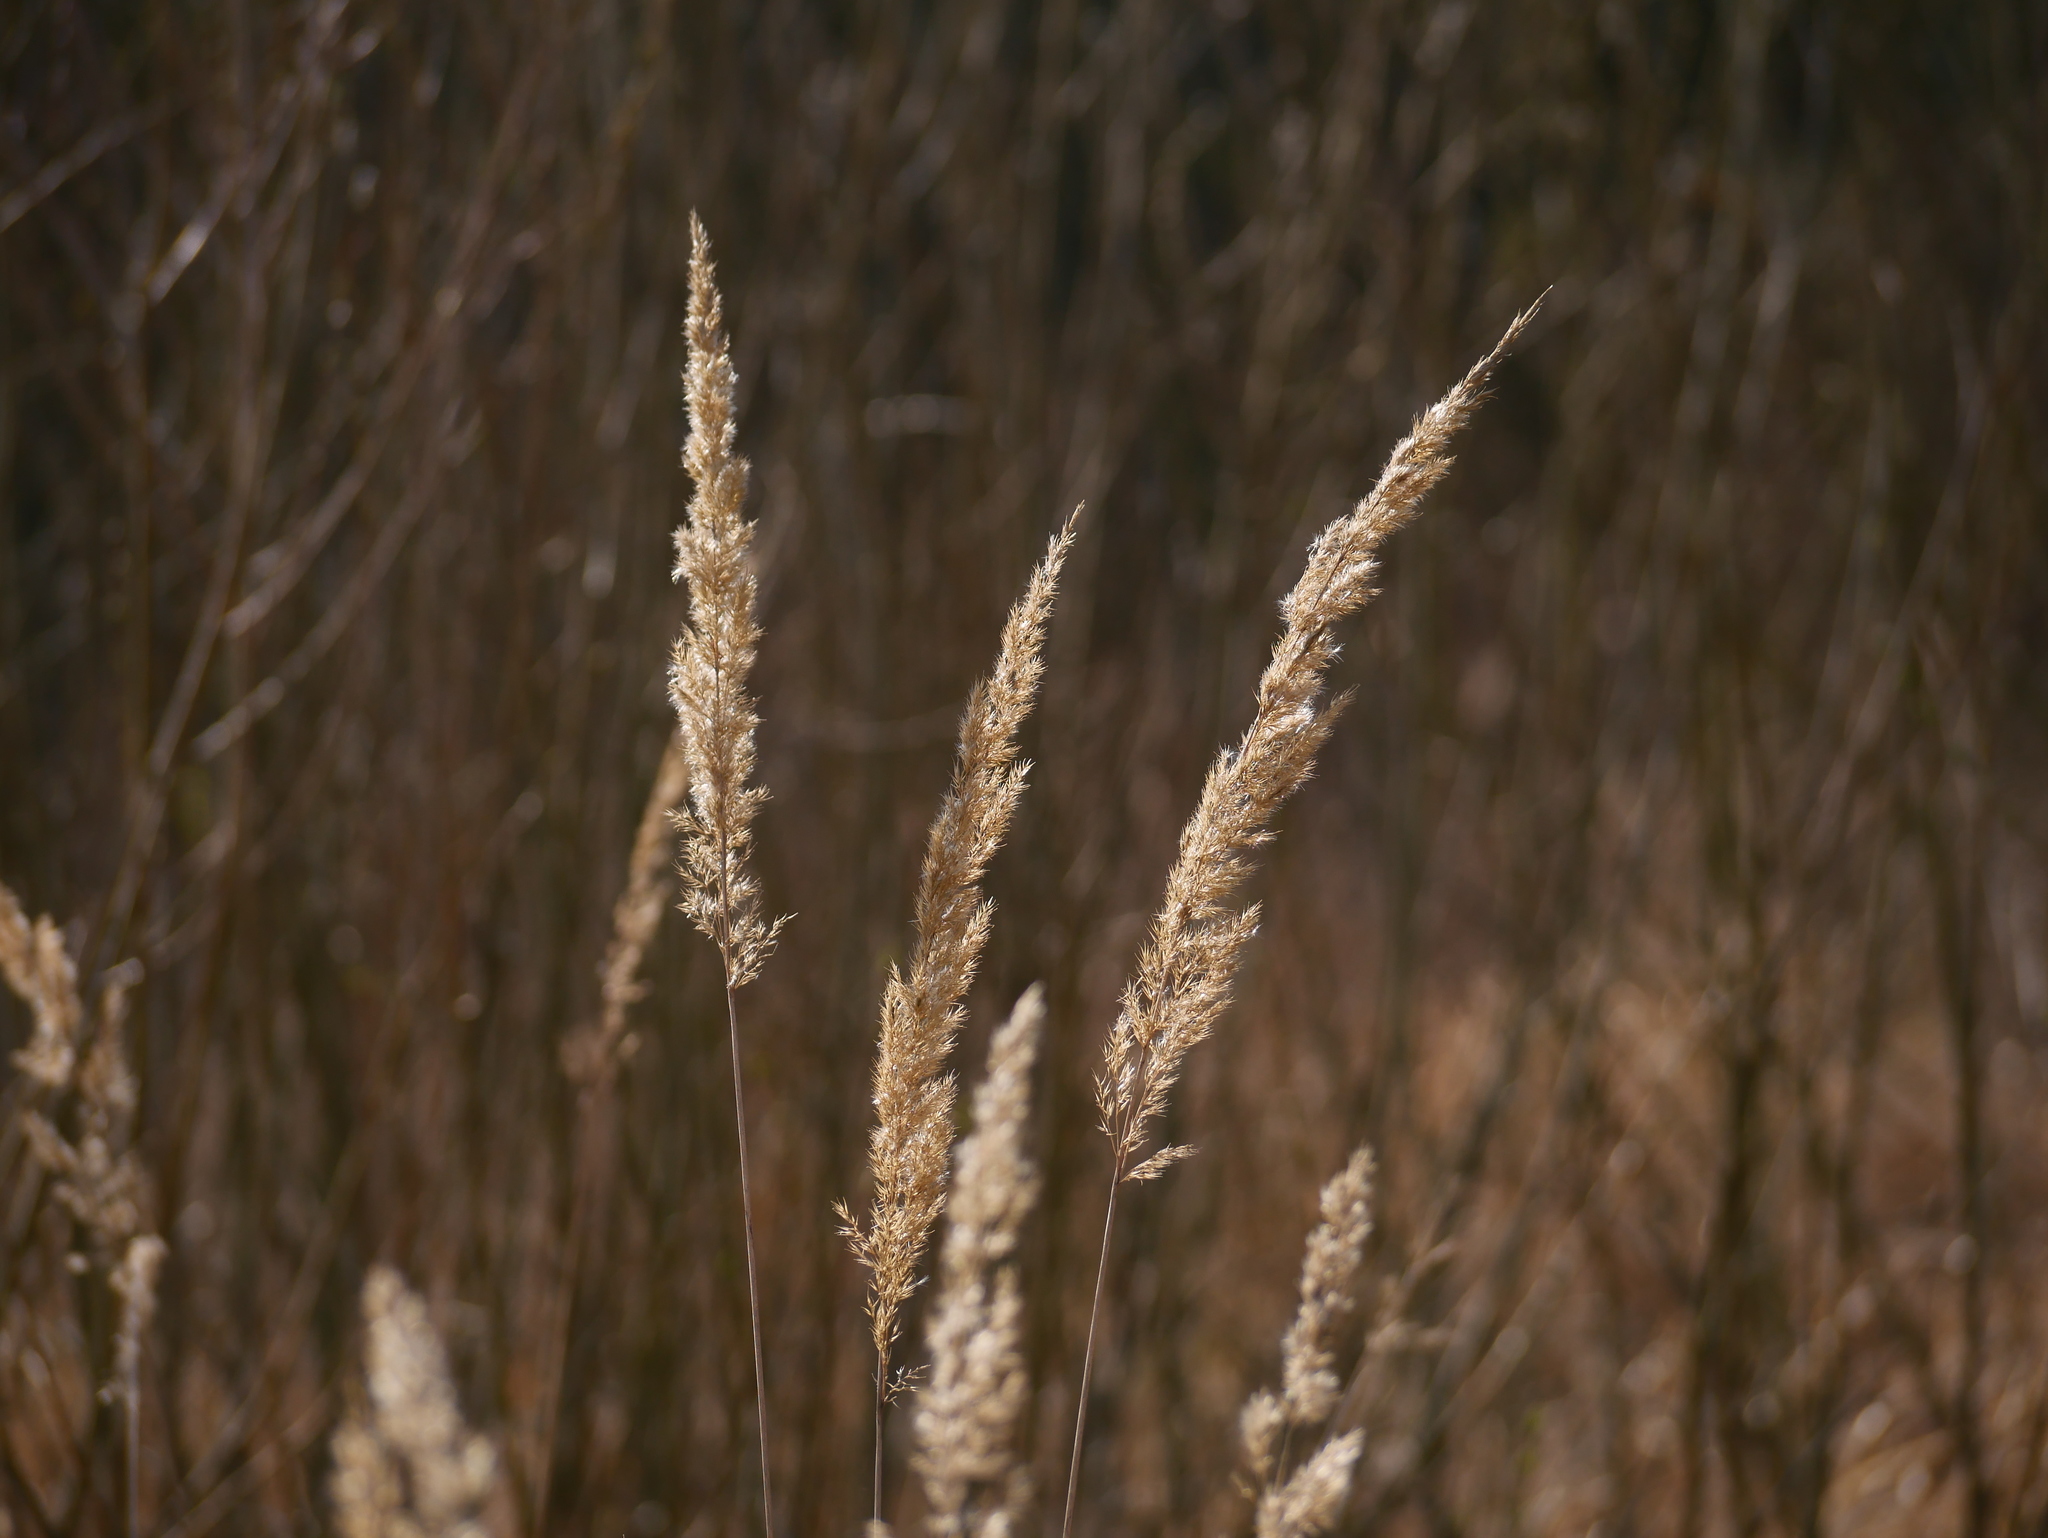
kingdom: Plantae
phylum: Tracheophyta
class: Liliopsida
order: Poales
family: Poaceae
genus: Calamagrostis
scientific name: Calamagrostis epigejos
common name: Wood small-reed
